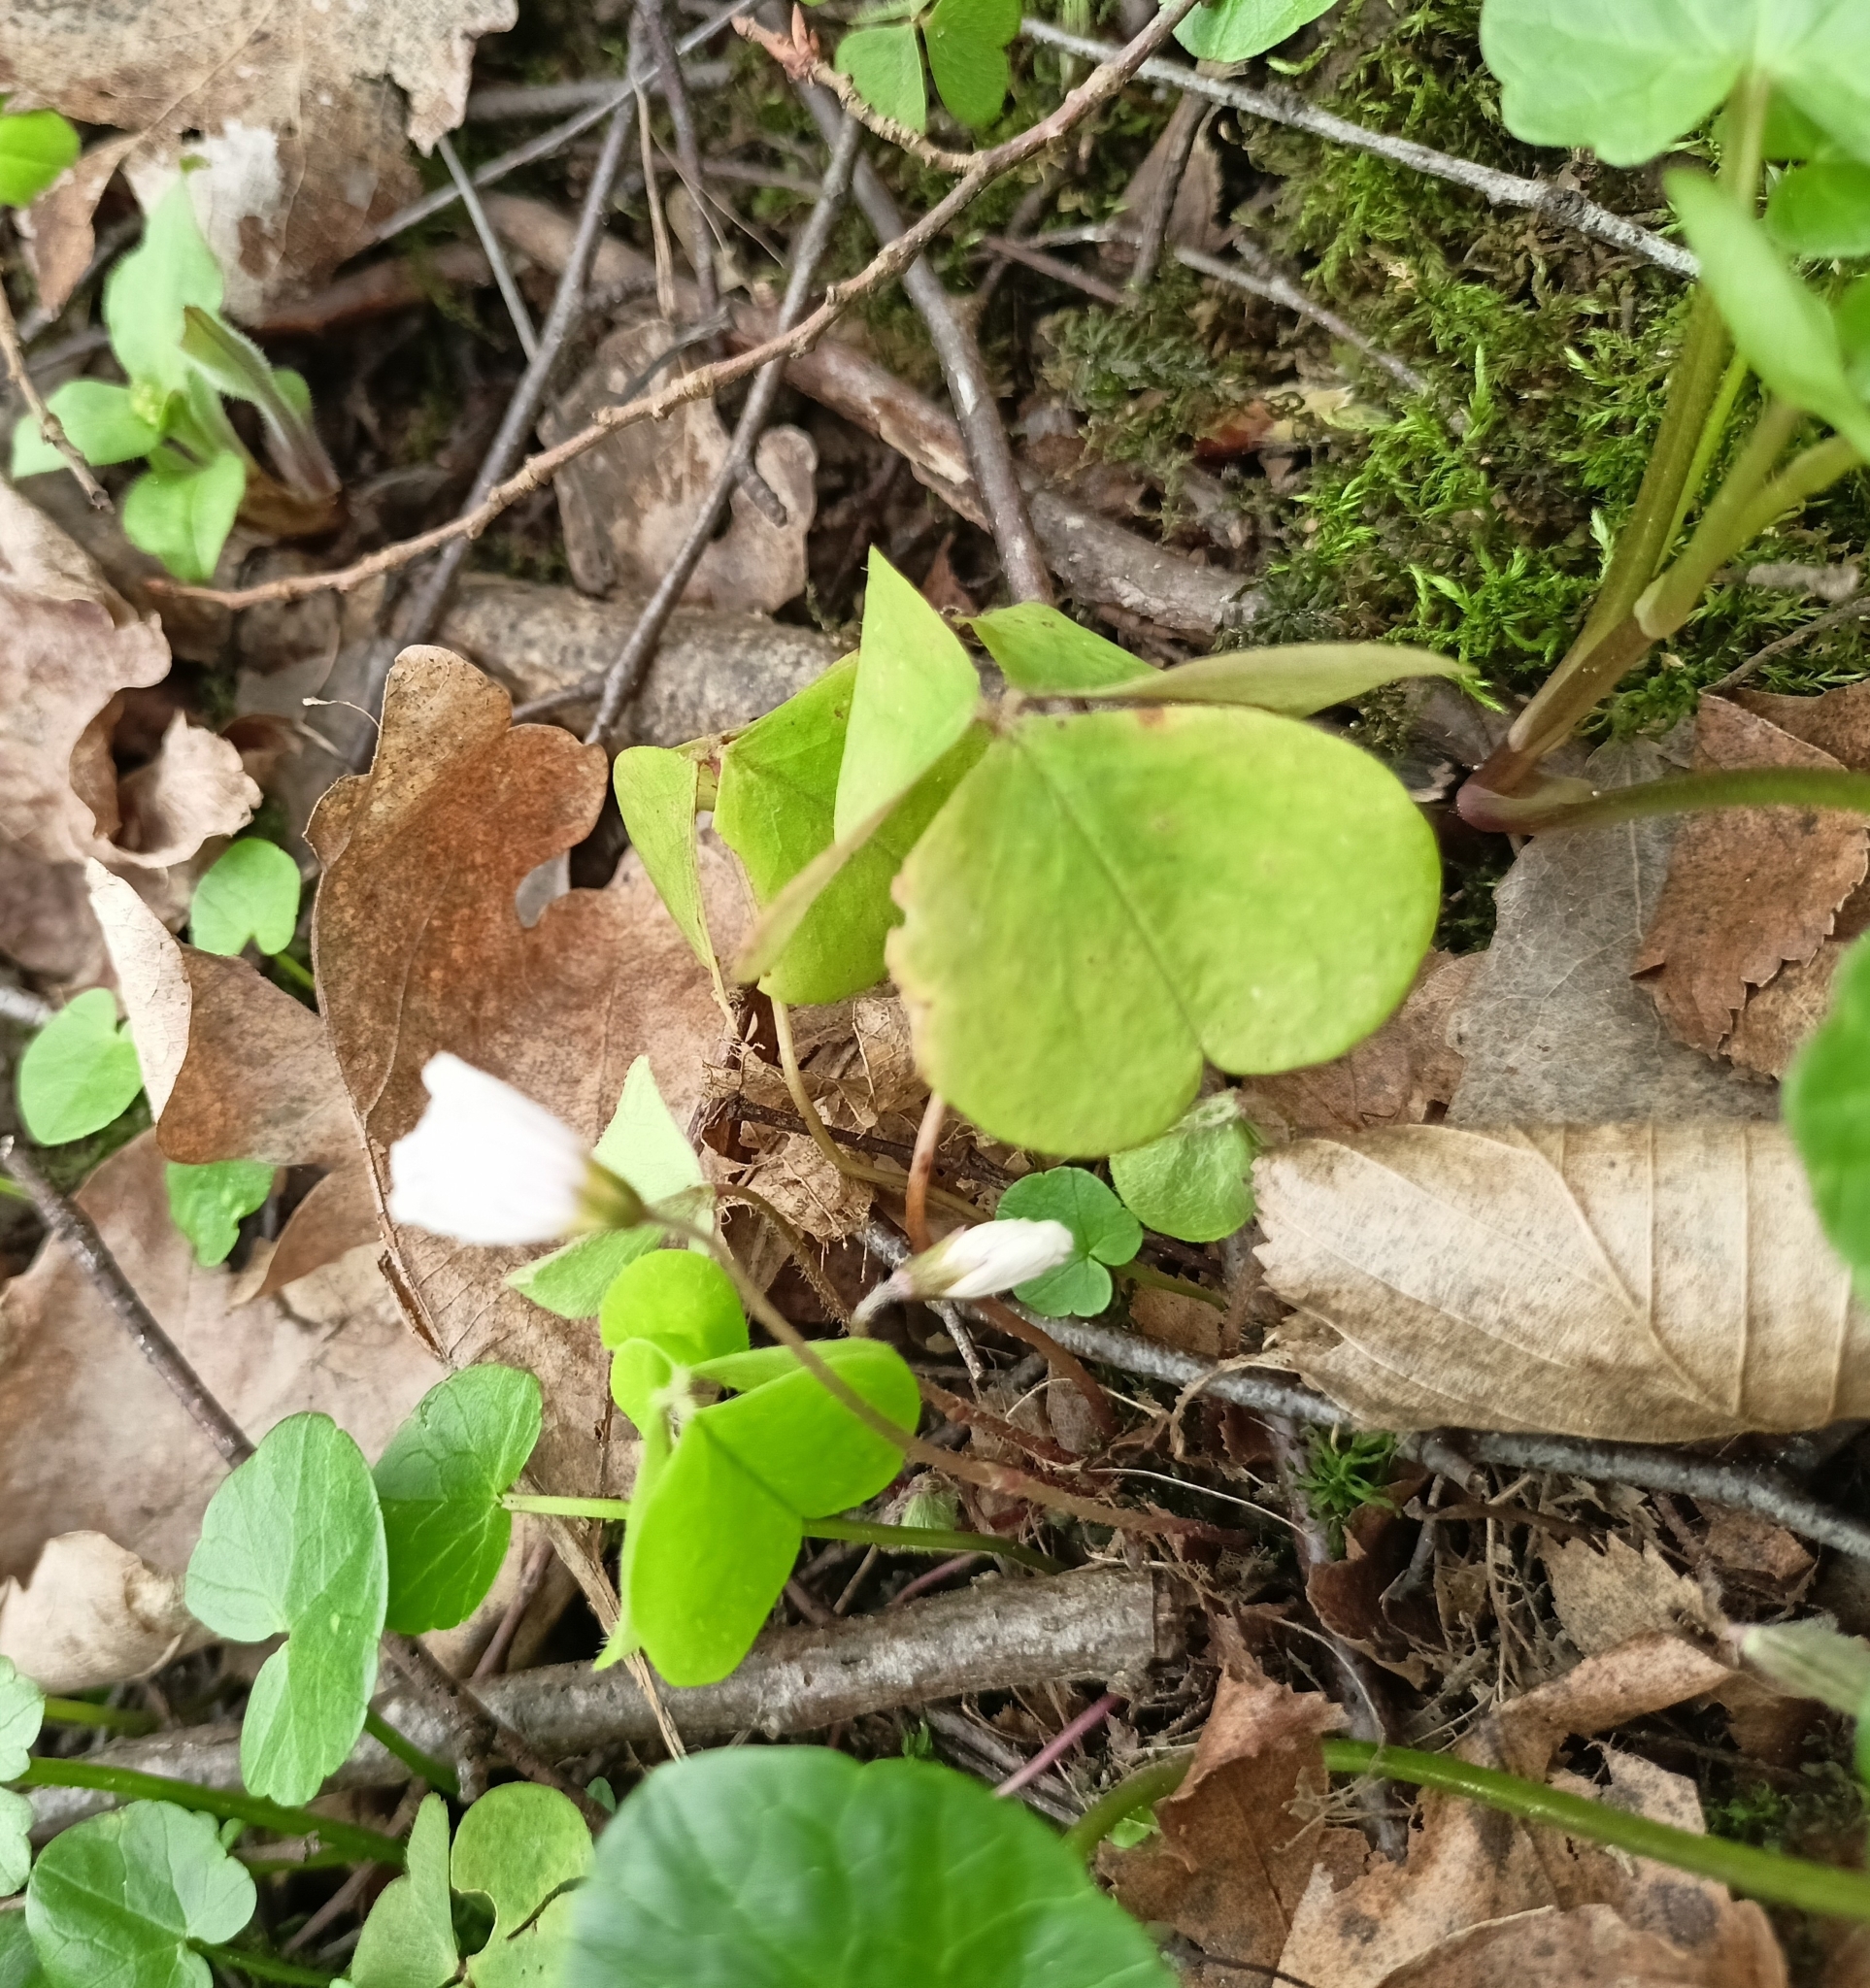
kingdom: Plantae
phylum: Tracheophyta
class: Magnoliopsida
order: Oxalidales
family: Oxalidaceae
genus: Oxalis
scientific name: Oxalis acetosella
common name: Wood-sorrel
